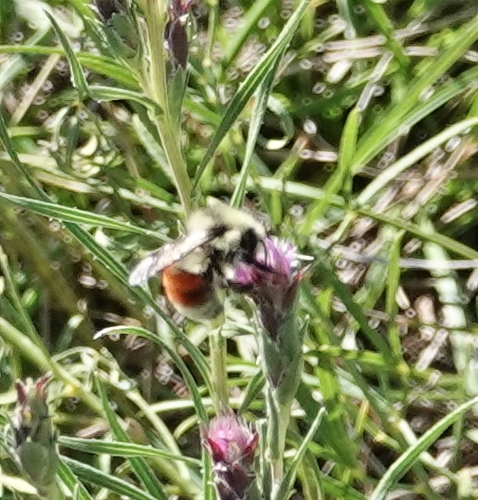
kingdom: Animalia
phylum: Arthropoda
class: Insecta
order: Hymenoptera
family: Apidae
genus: Bombus
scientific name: Bombus huntii
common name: Hunt bumble bee
